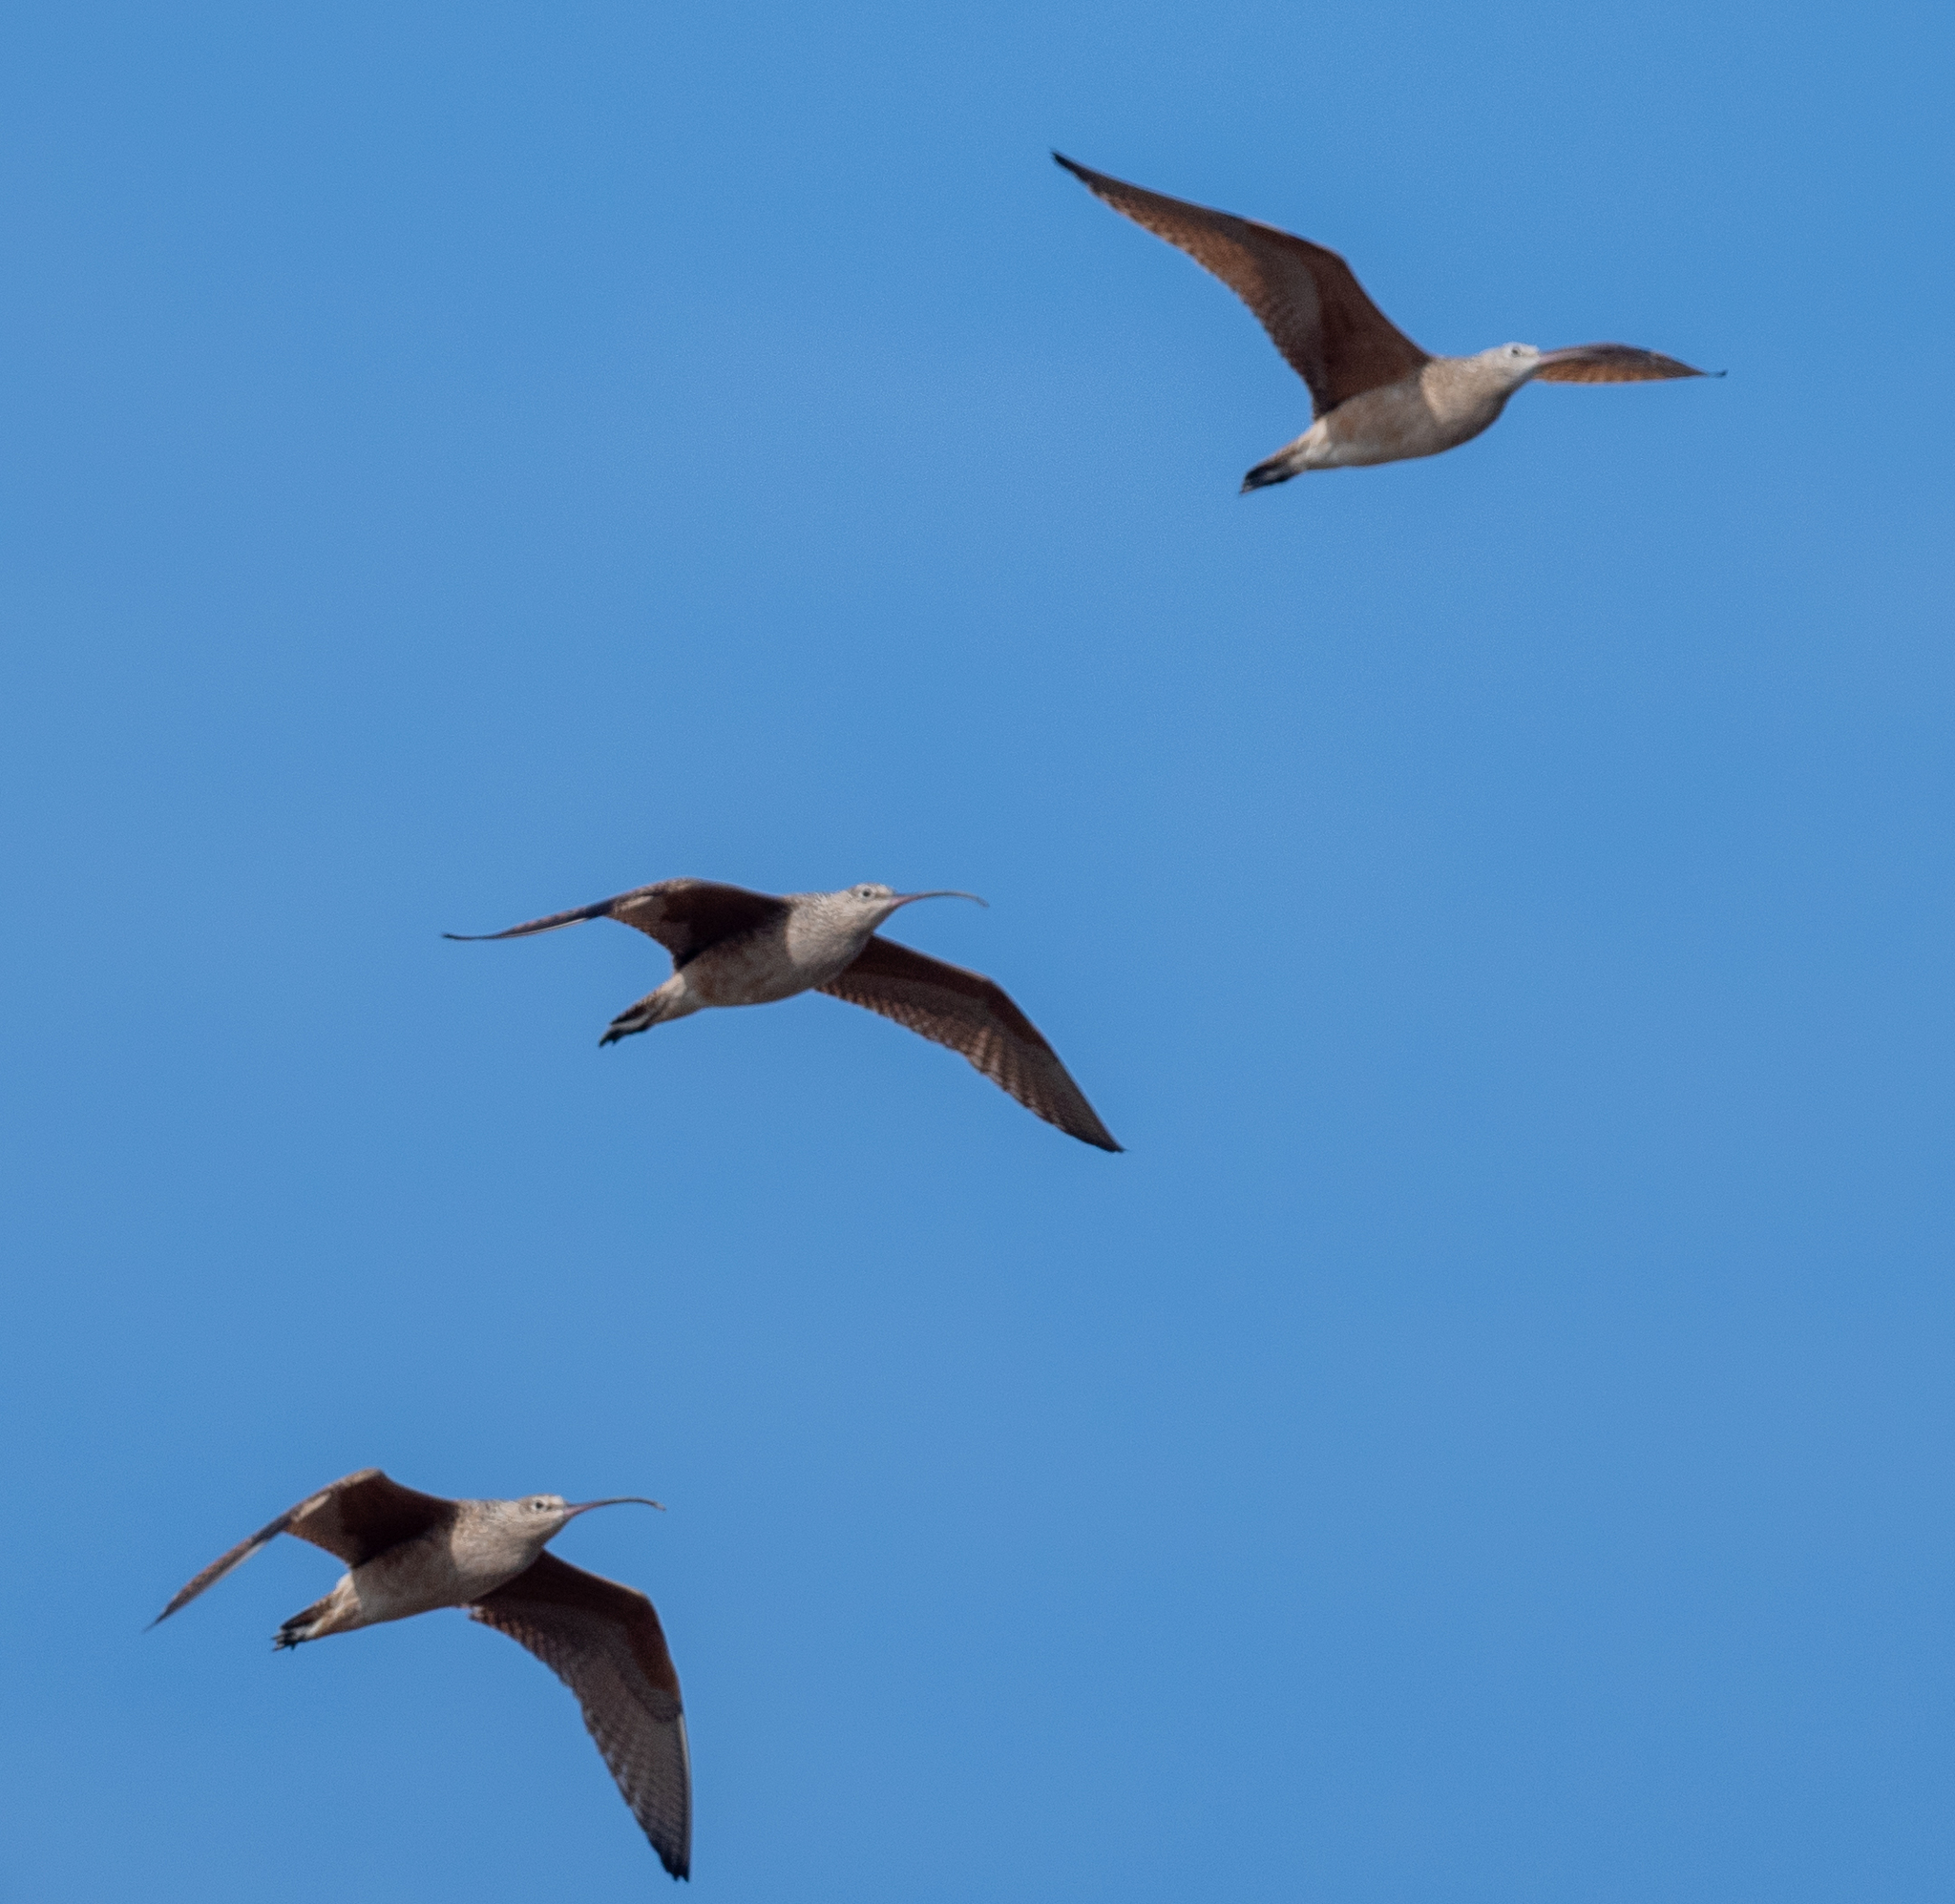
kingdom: Animalia
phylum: Chordata
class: Aves
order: Charadriiformes
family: Scolopacidae
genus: Numenius
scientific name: Numenius americanus
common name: Long-billed curlew
